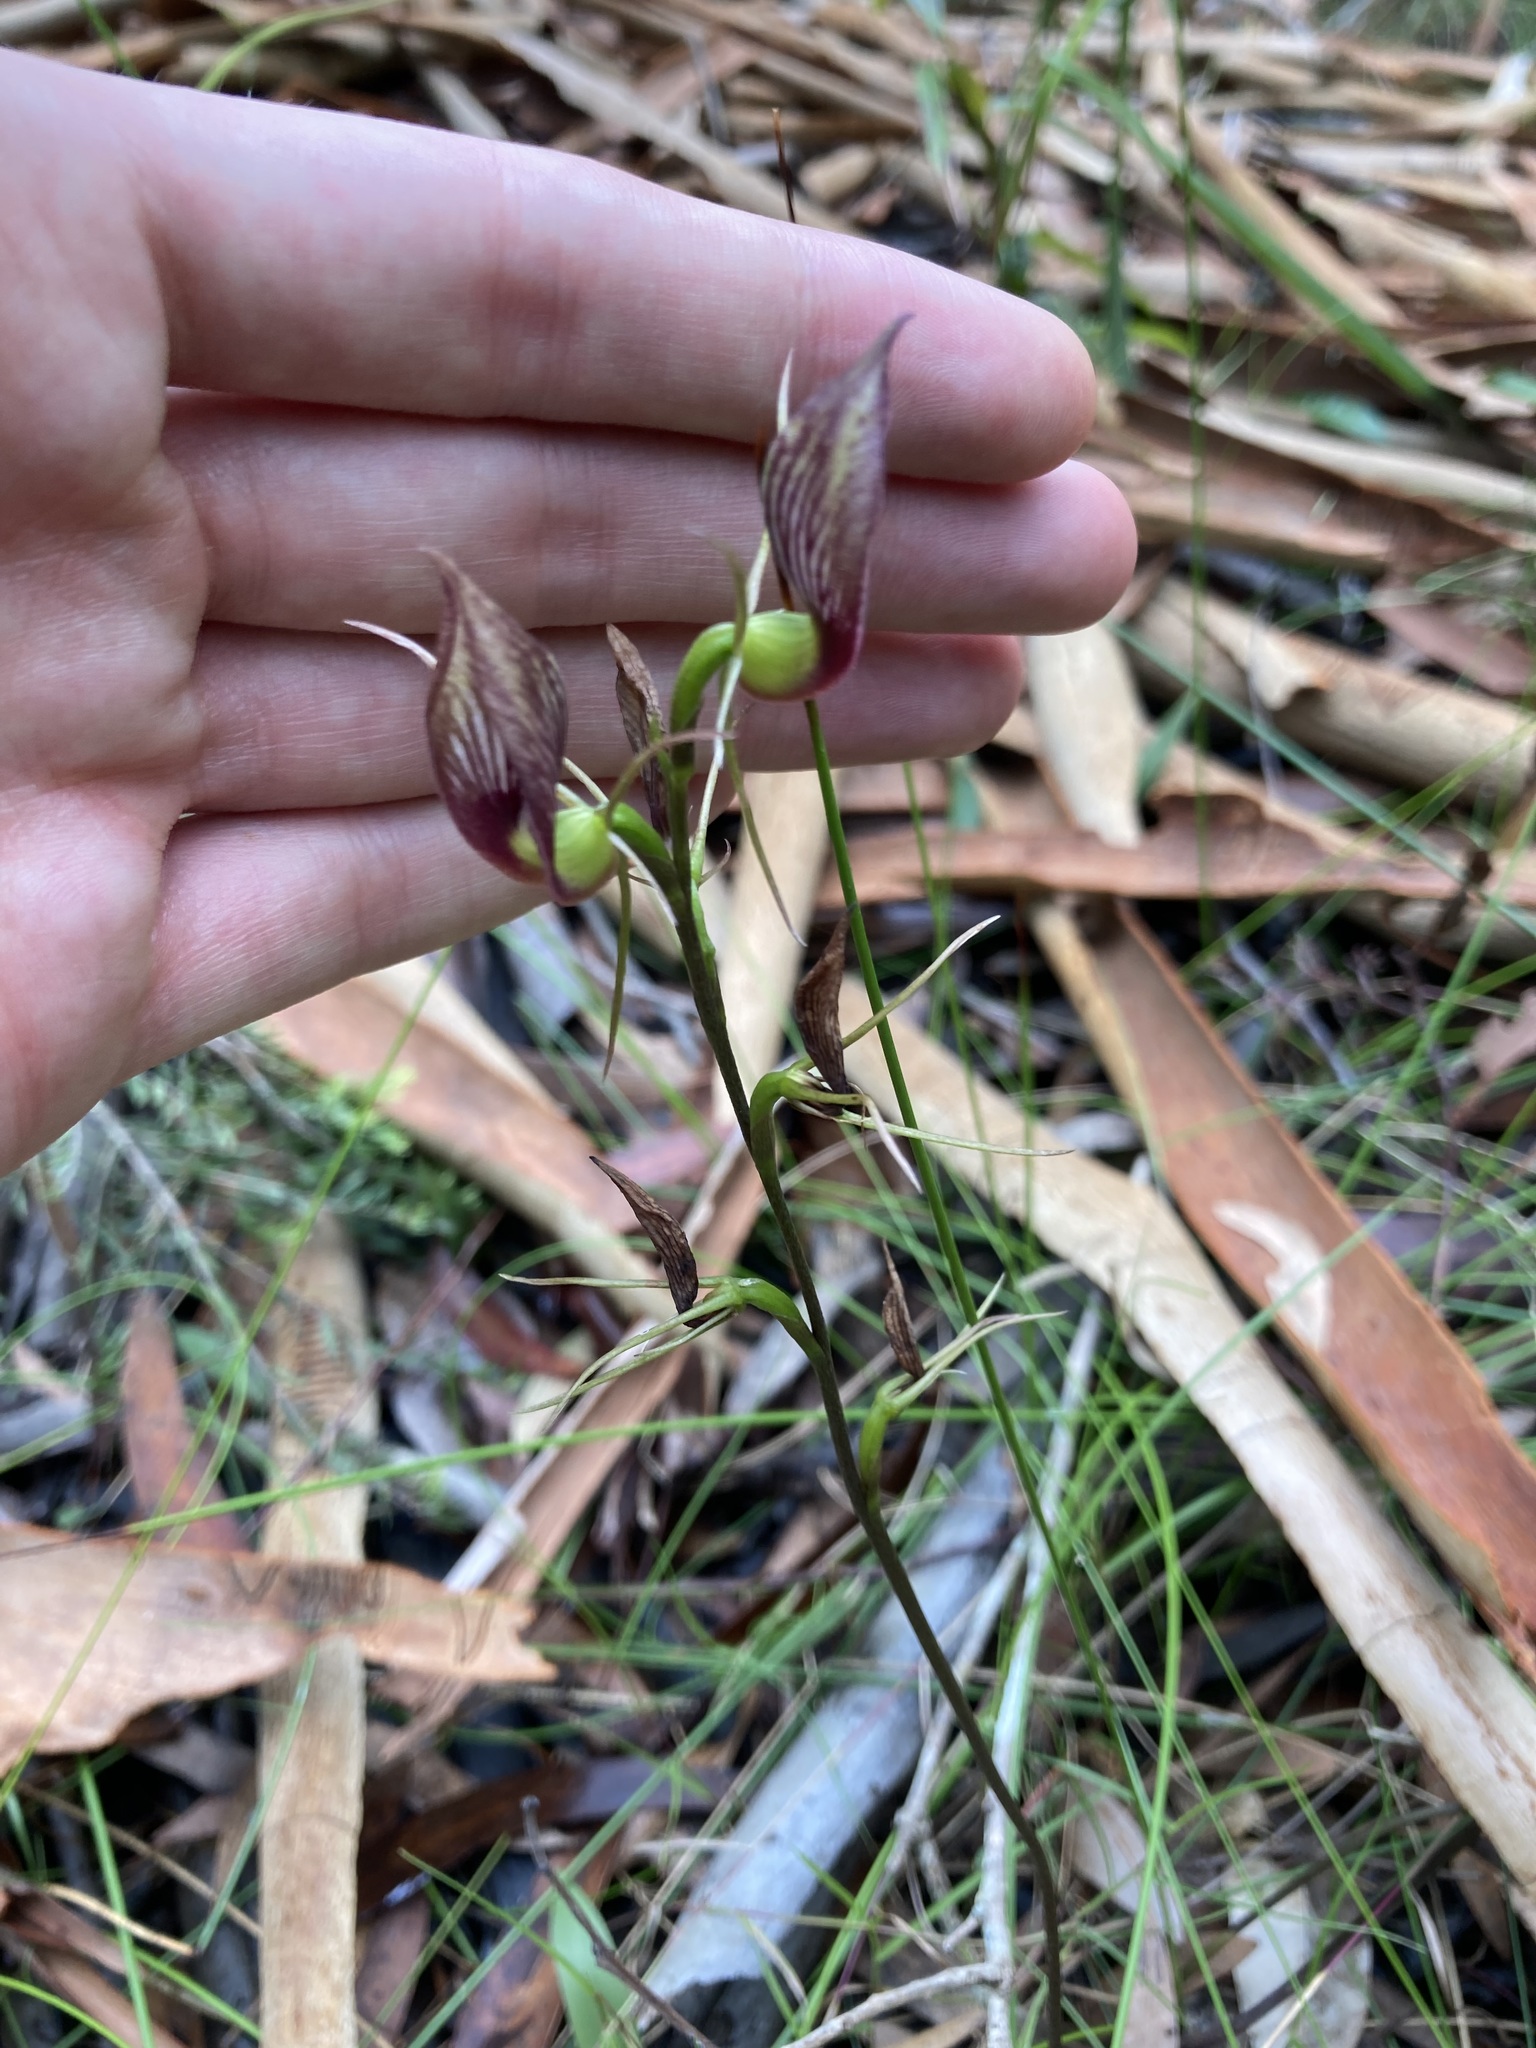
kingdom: Plantae
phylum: Tracheophyta
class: Liliopsida
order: Asparagales
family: Orchidaceae
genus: Cryptostylis
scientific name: Cryptostylis erecta
